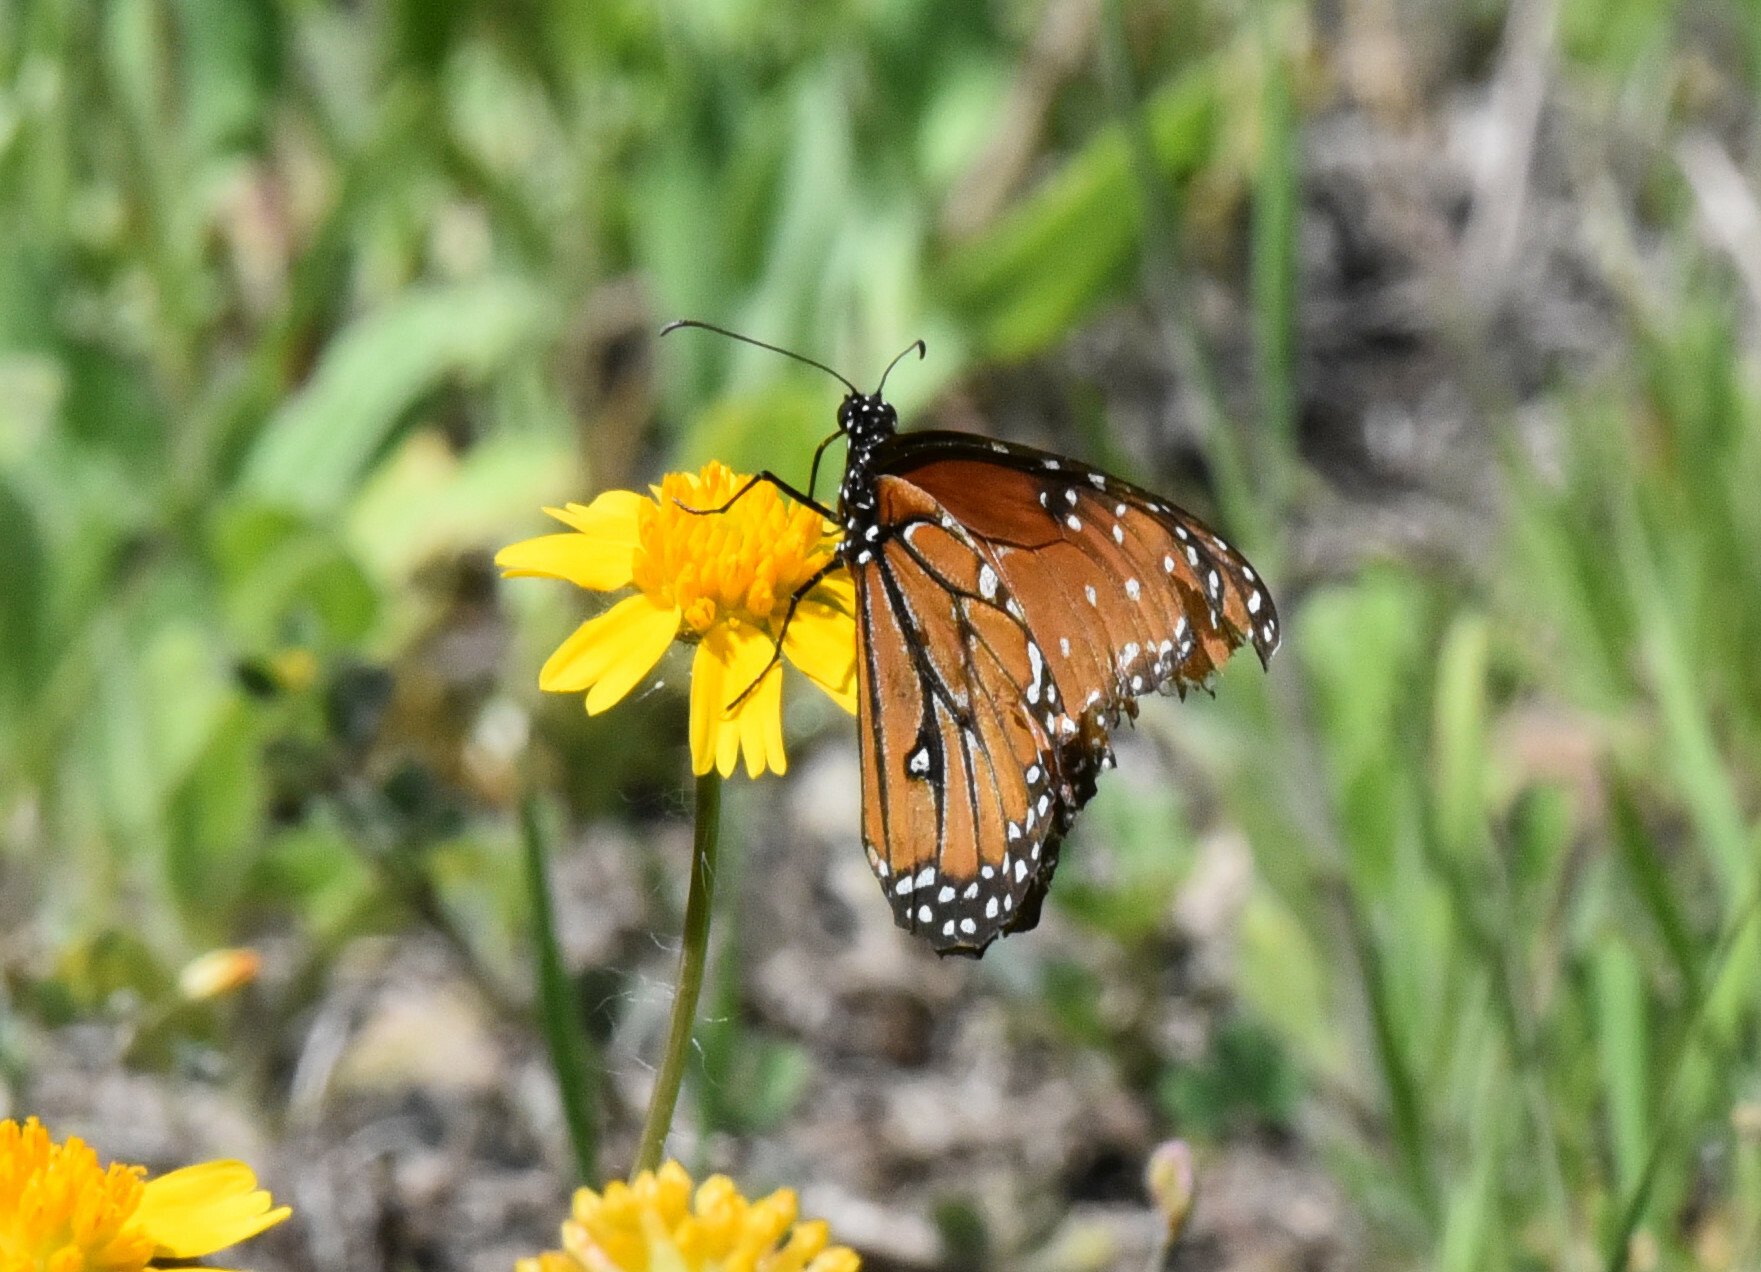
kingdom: Animalia
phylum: Arthropoda
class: Insecta
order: Lepidoptera
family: Nymphalidae
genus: Danaus
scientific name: Danaus gilippus
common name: Queen
